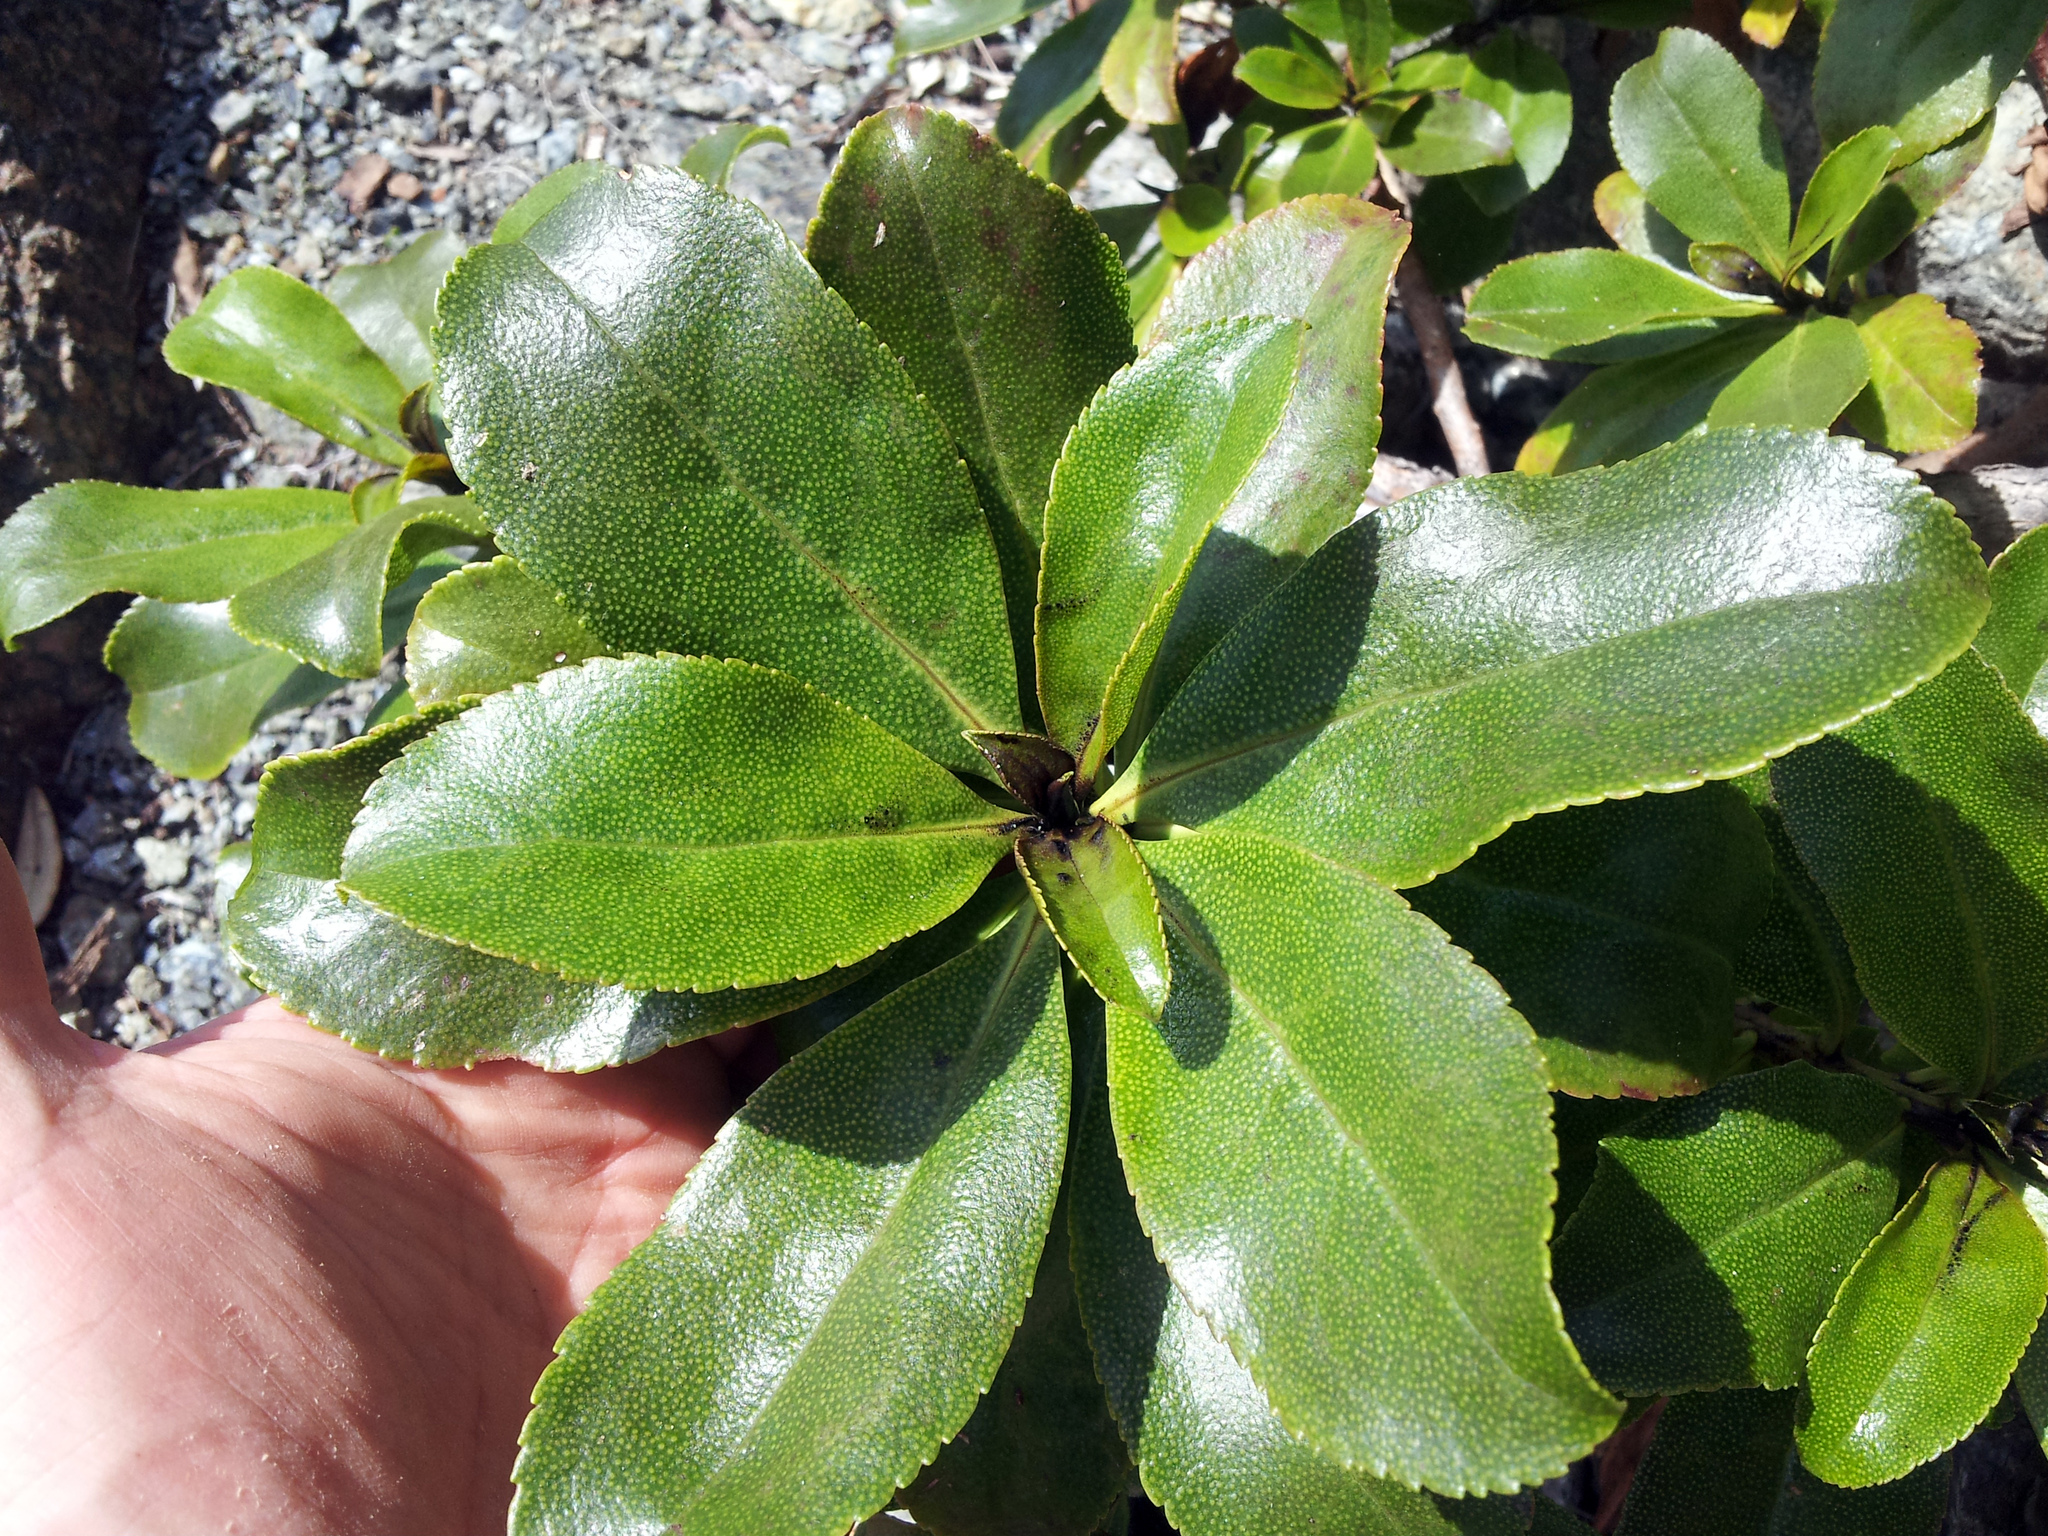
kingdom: Plantae
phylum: Tracheophyta
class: Magnoliopsida
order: Lamiales
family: Scrophulariaceae
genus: Myoporum
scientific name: Myoporum laetum
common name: Ngaio tree
